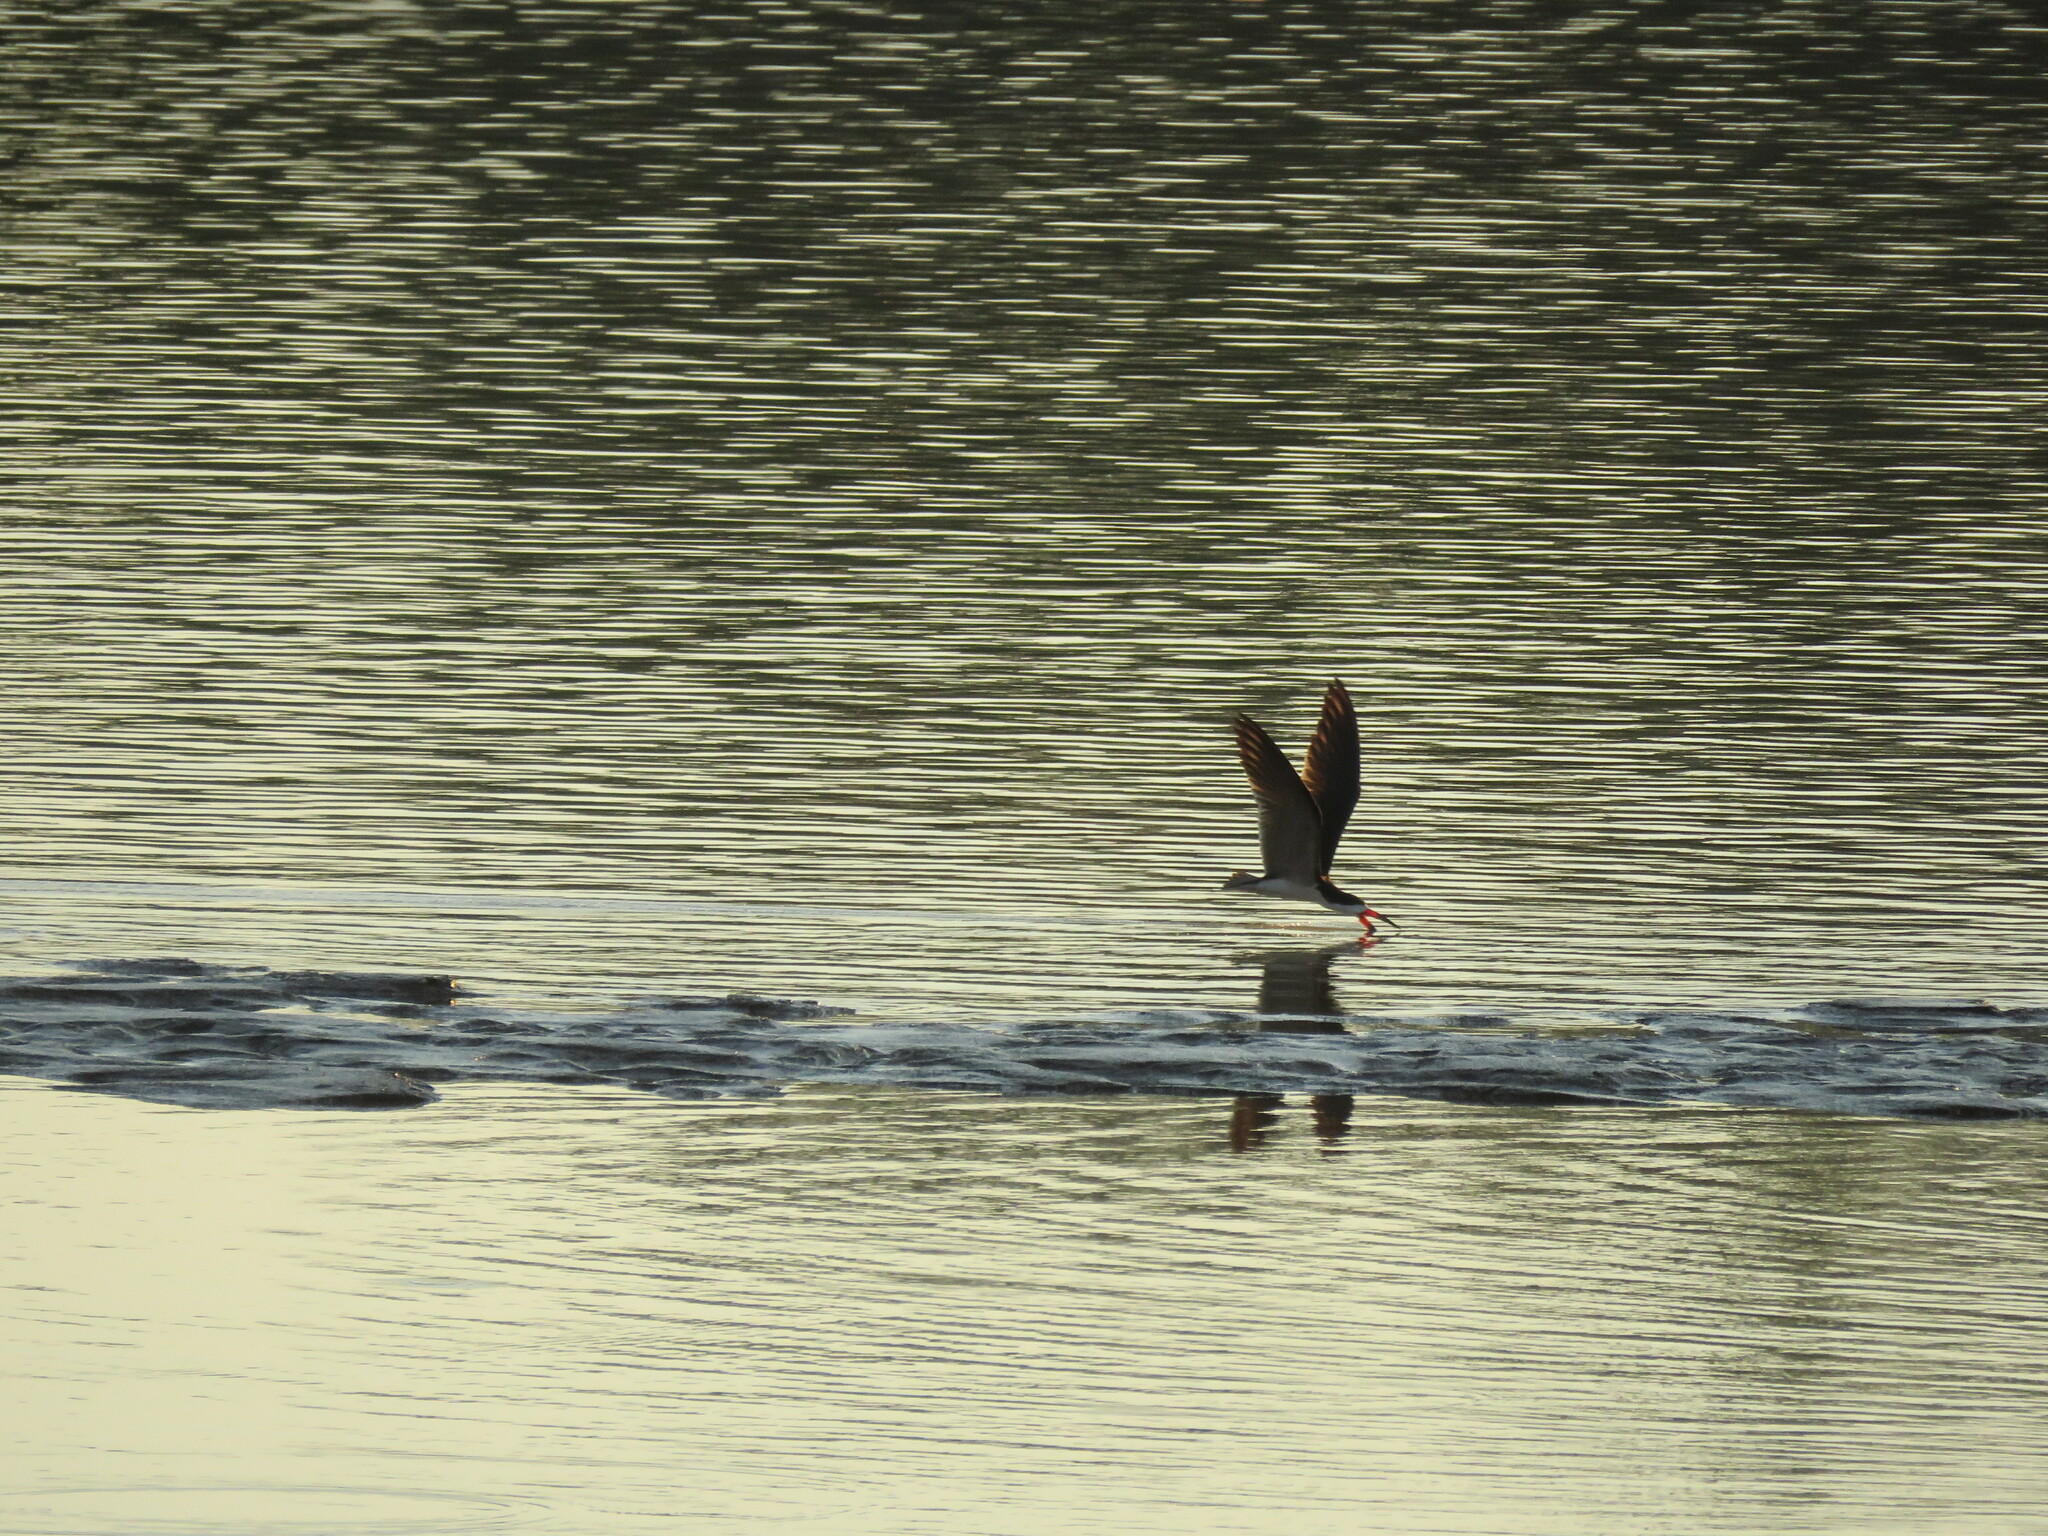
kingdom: Animalia
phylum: Chordata
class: Aves
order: Charadriiformes
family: Laridae
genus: Rynchops
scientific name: Rynchops niger
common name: Black skimmer
